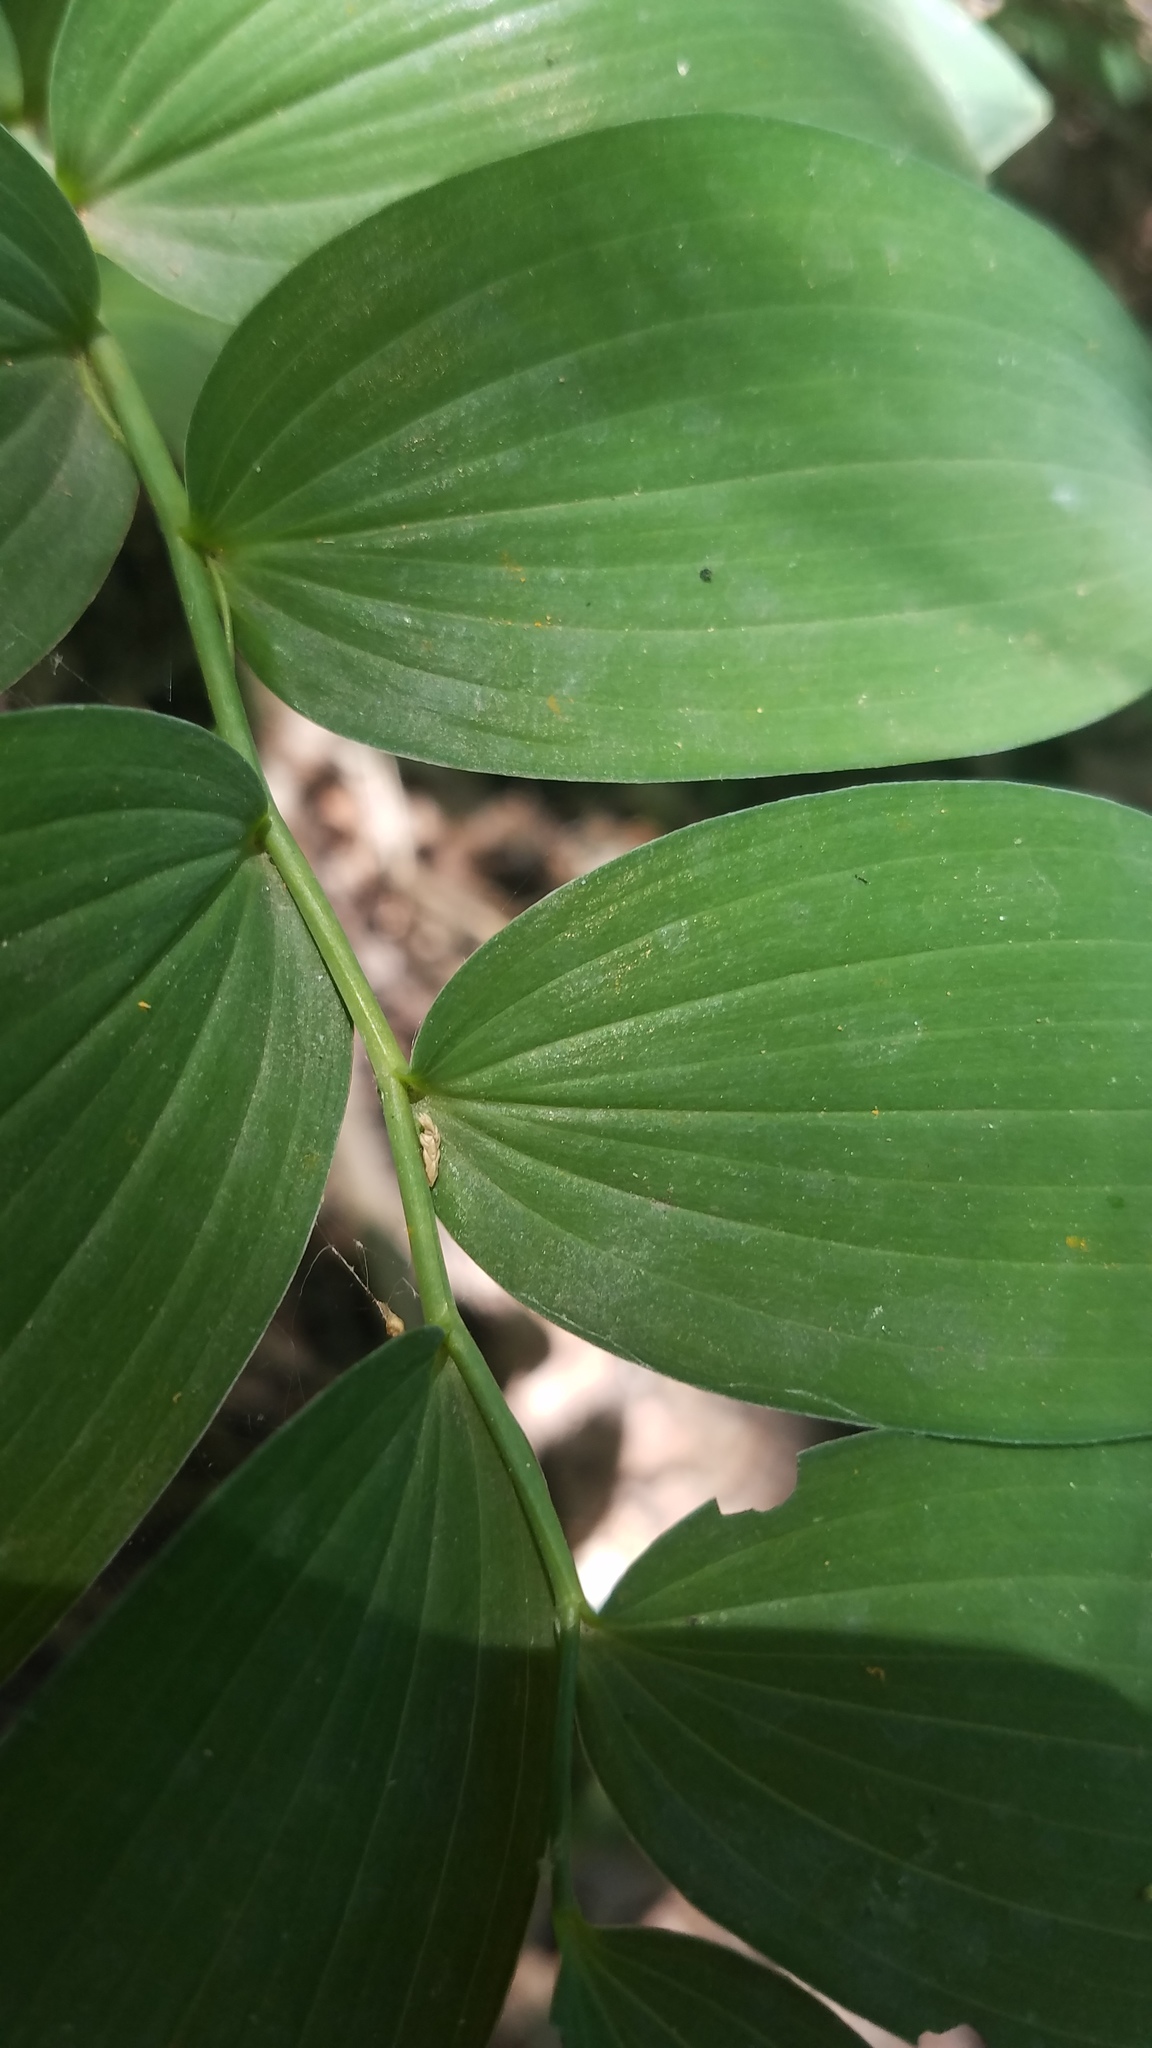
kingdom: Plantae
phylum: Tracheophyta
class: Liliopsida
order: Asparagales
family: Asparagaceae
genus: Polygonatum
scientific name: Polygonatum biflorum
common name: American solomon's-seal
